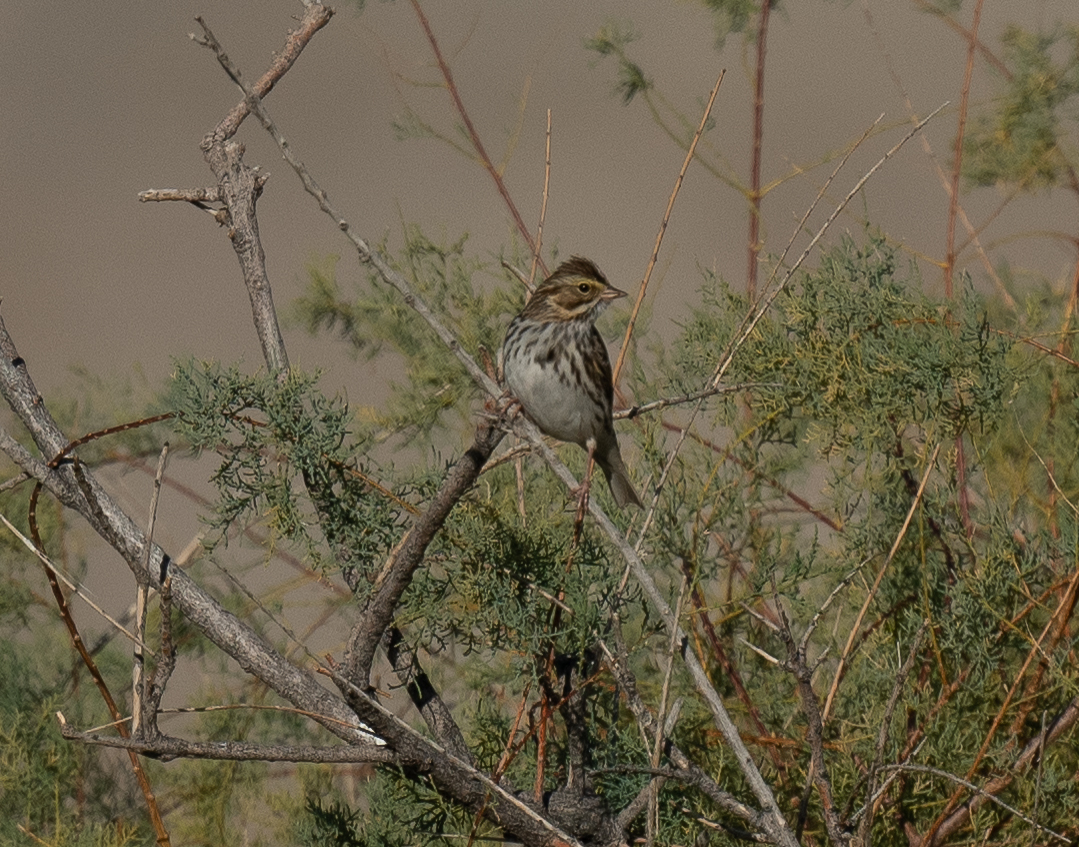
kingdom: Animalia
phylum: Chordata
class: Aves
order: Passeriformes
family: Passerellidae
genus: Passerculus
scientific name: Passerculus sandwichensis
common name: Savannah sparrow
